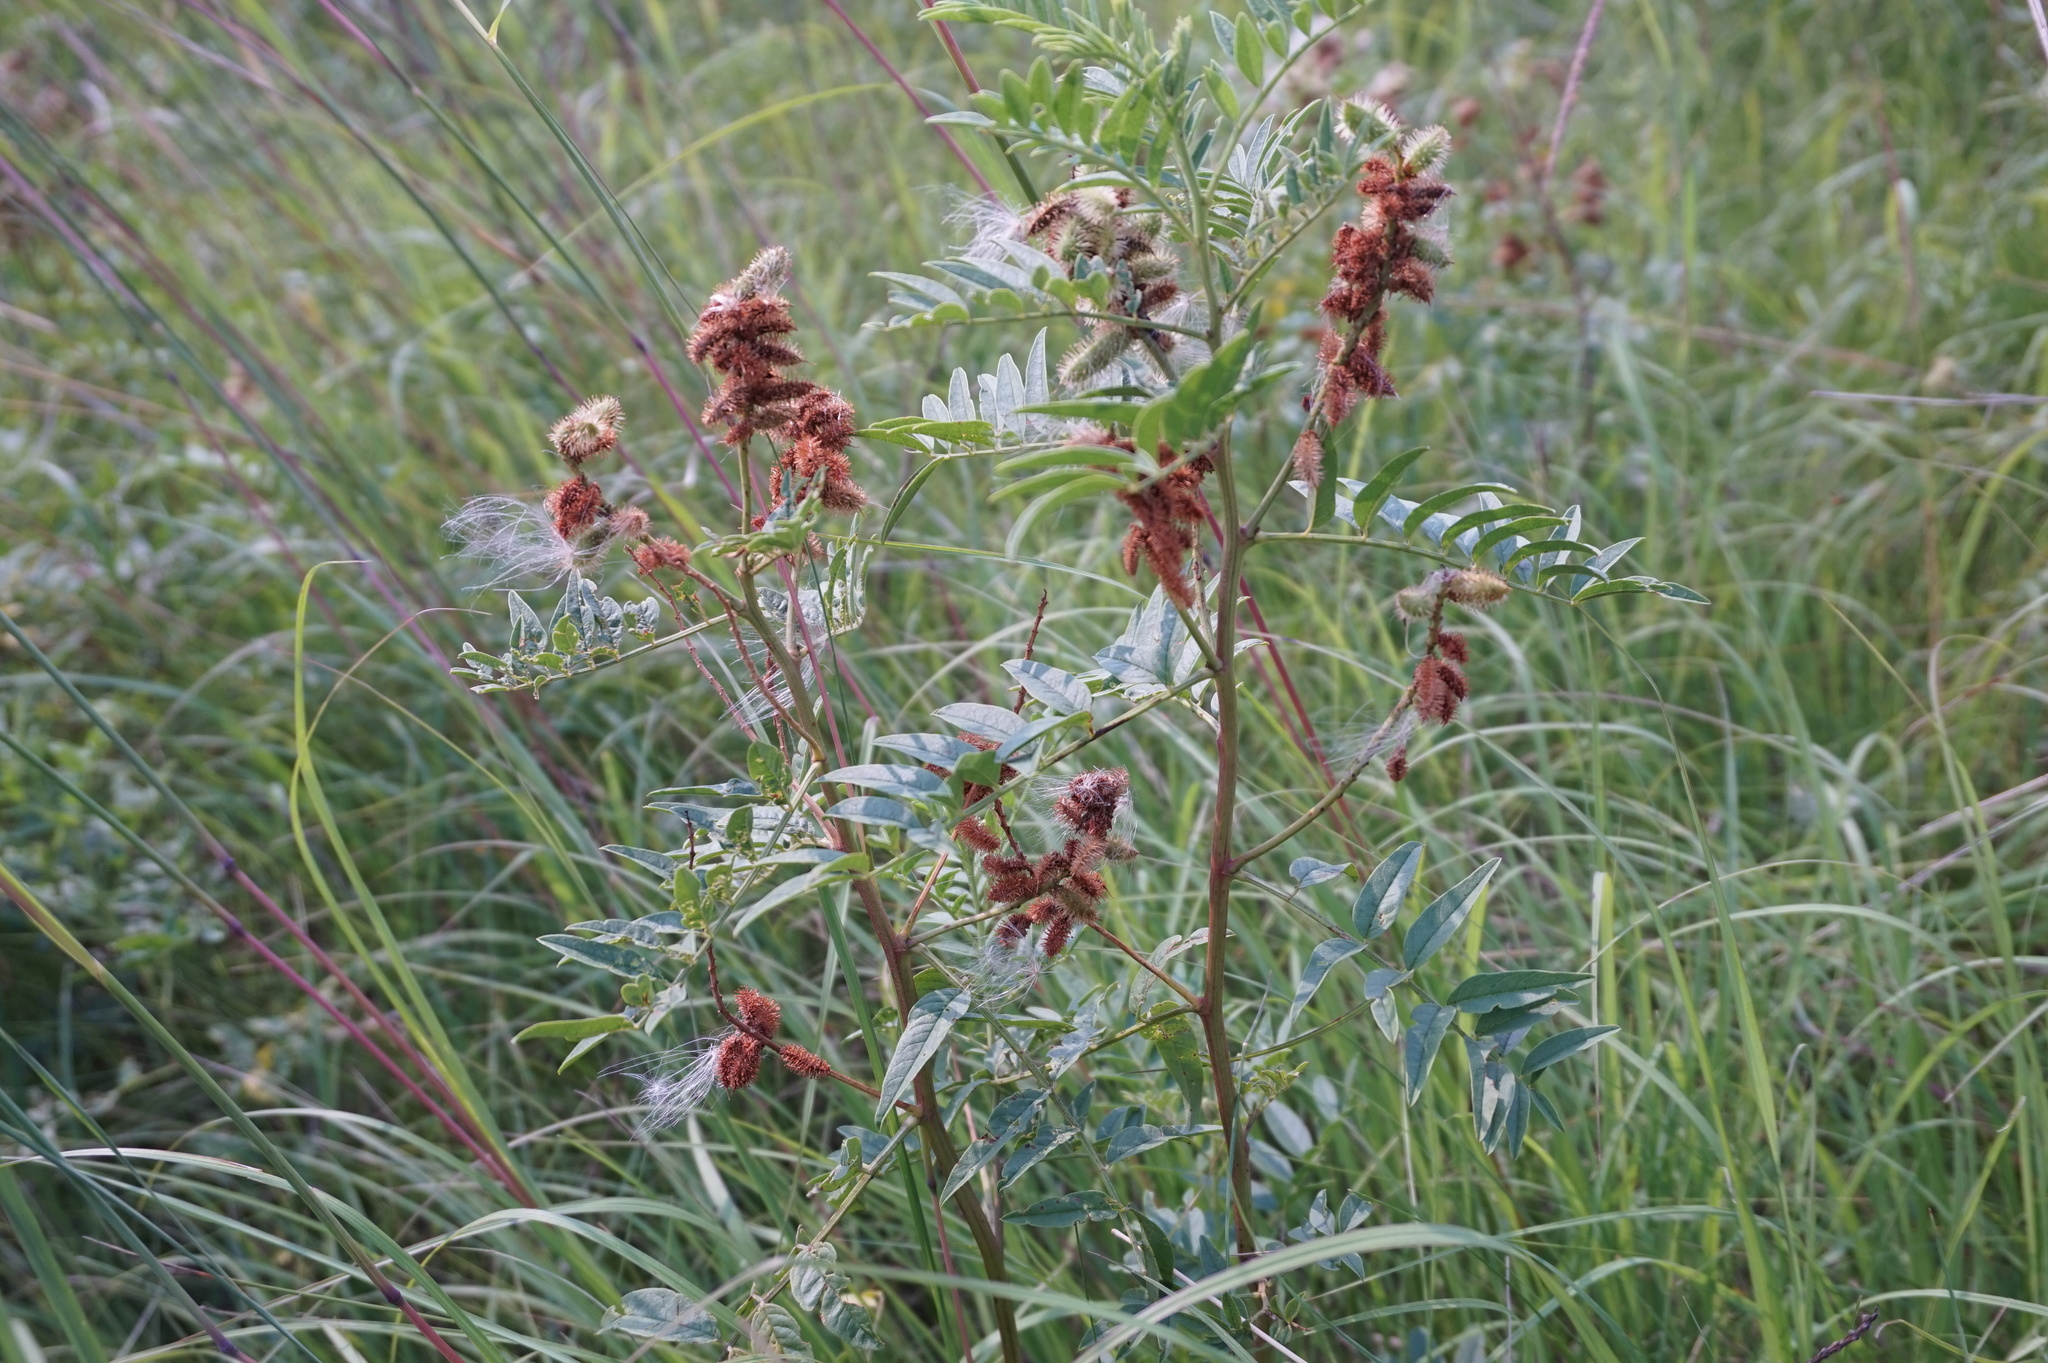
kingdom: Plantae
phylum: Tracheophyta
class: Magnoliopsida
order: Fabales
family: Fabaceae
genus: Glycyrrhiza
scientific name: Glycyrrhiza lepidota
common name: American liquorice
